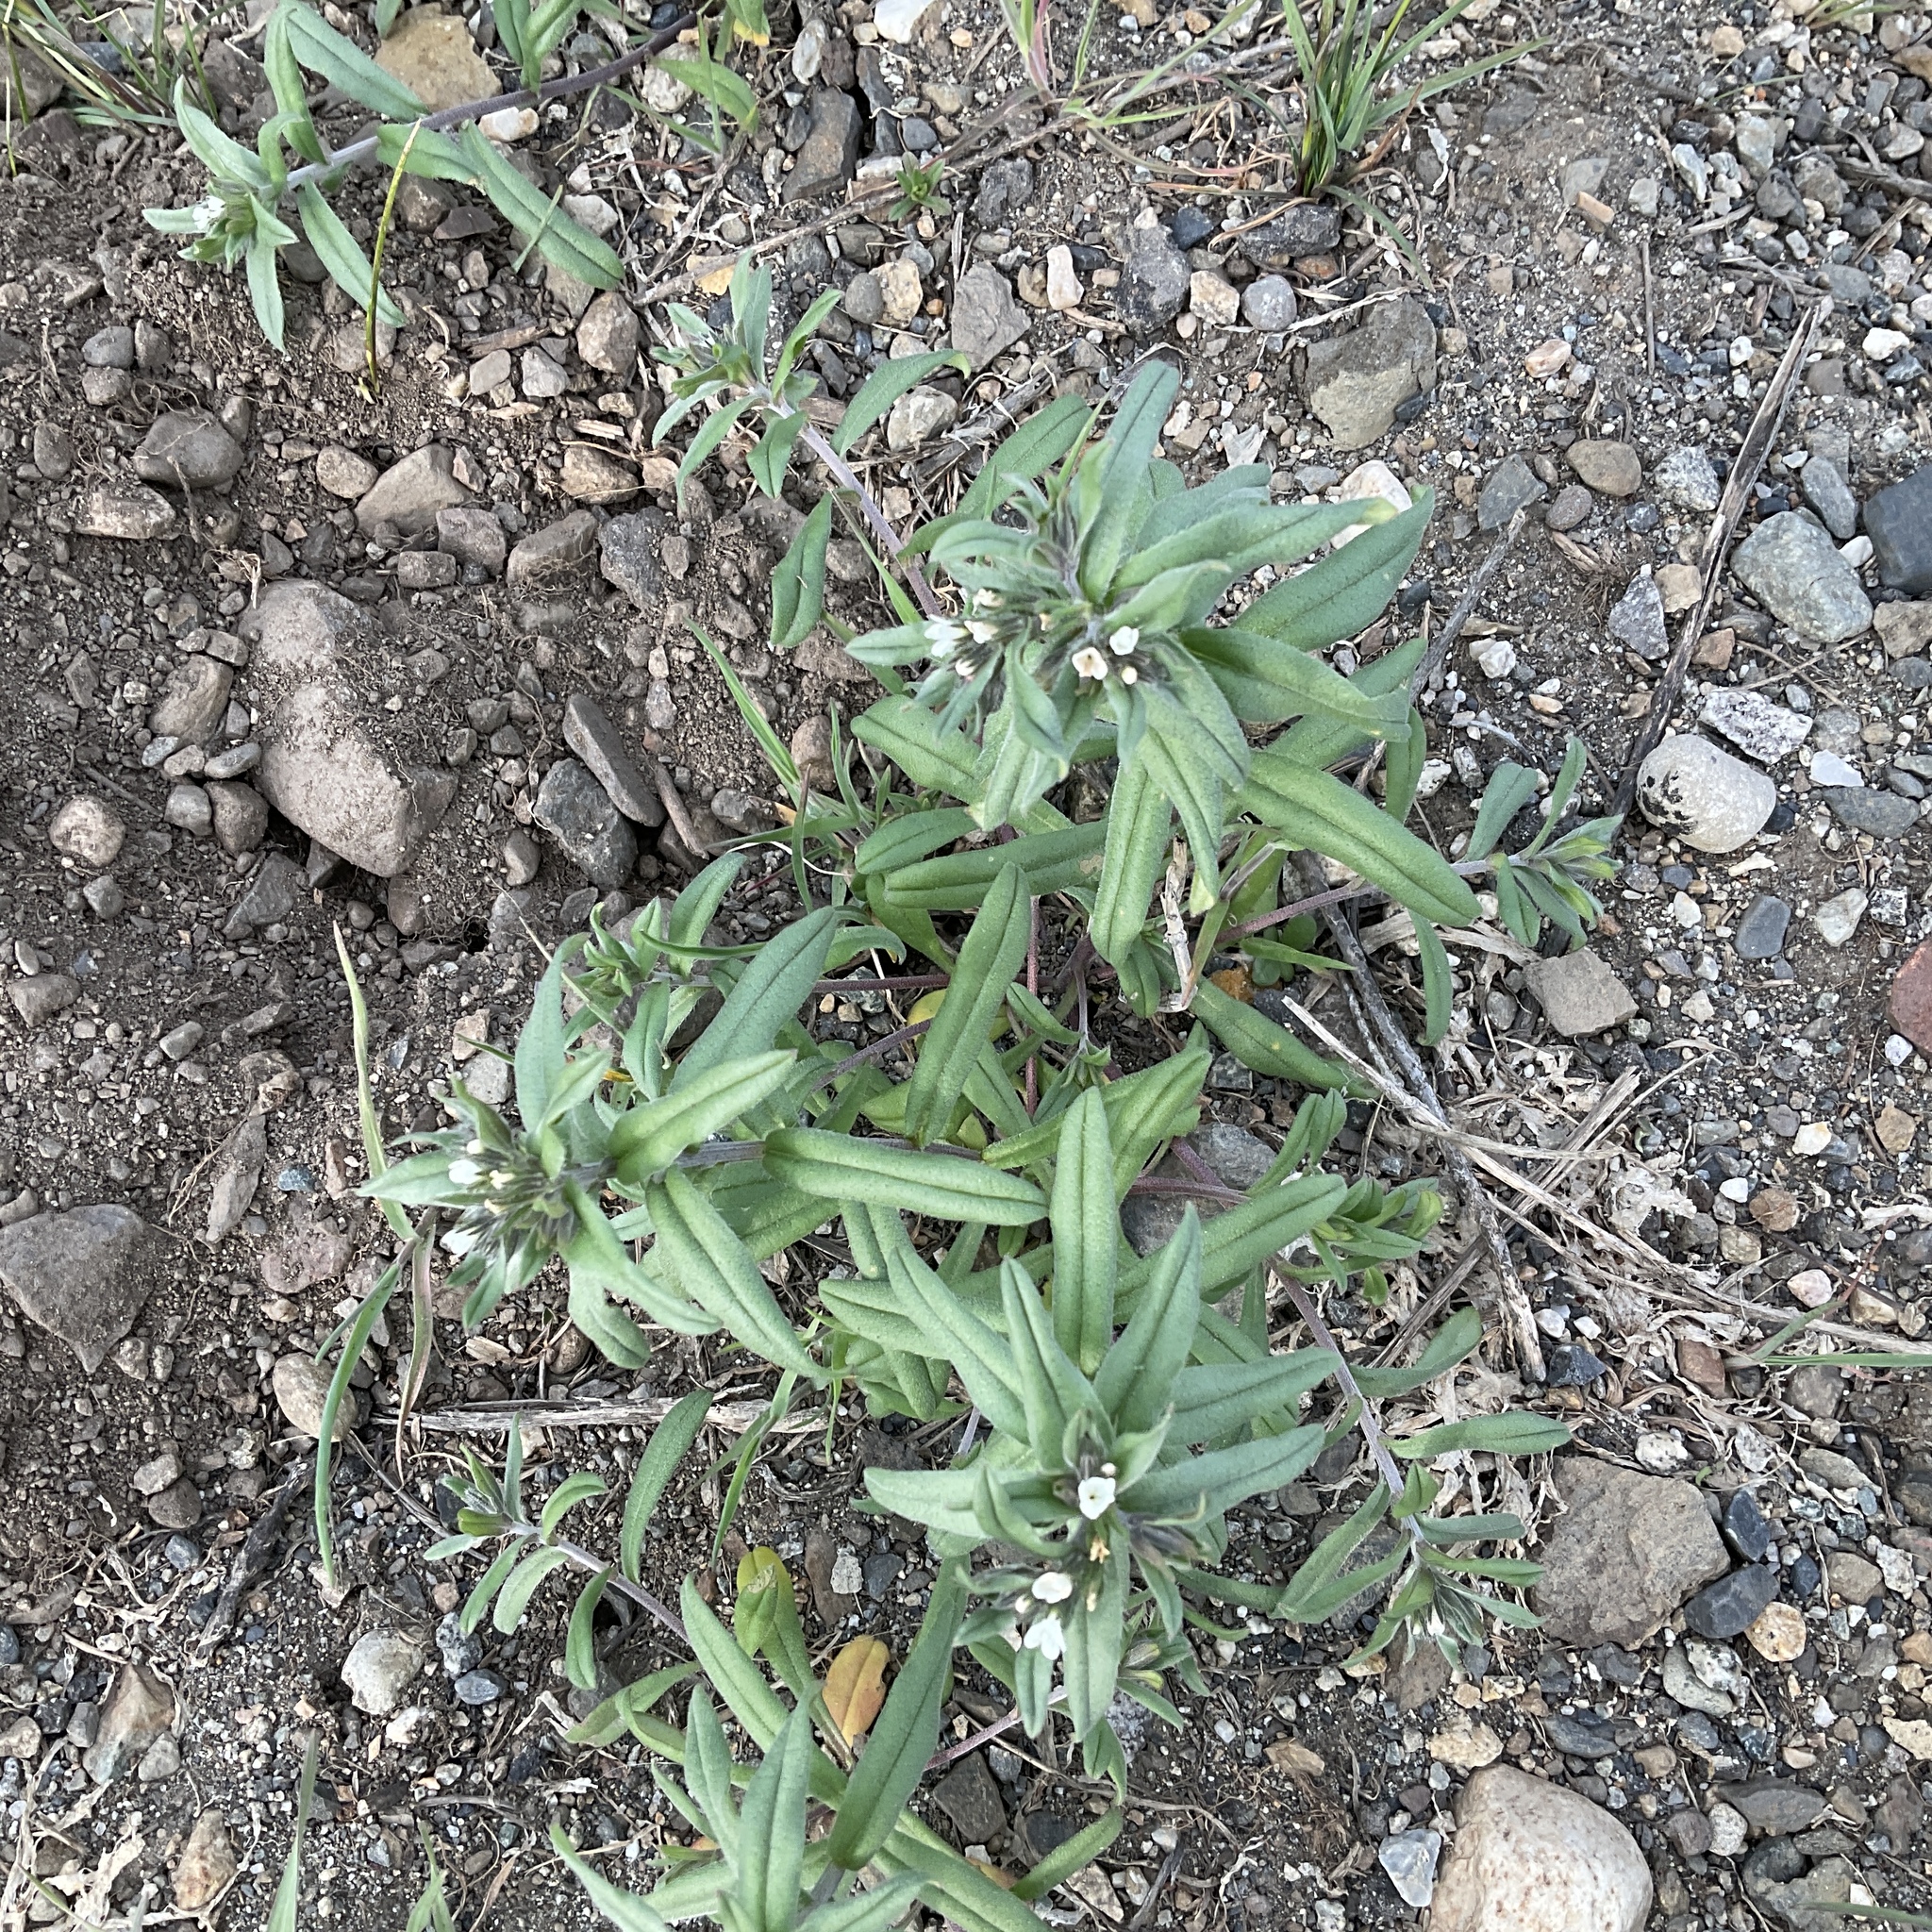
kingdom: Plantae
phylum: Tracheophyta
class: Magnoliopsida
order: Boraginales
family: Boraginaceae
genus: Buglossoides
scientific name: Buglossoides arvensis
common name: Corn gromwell
